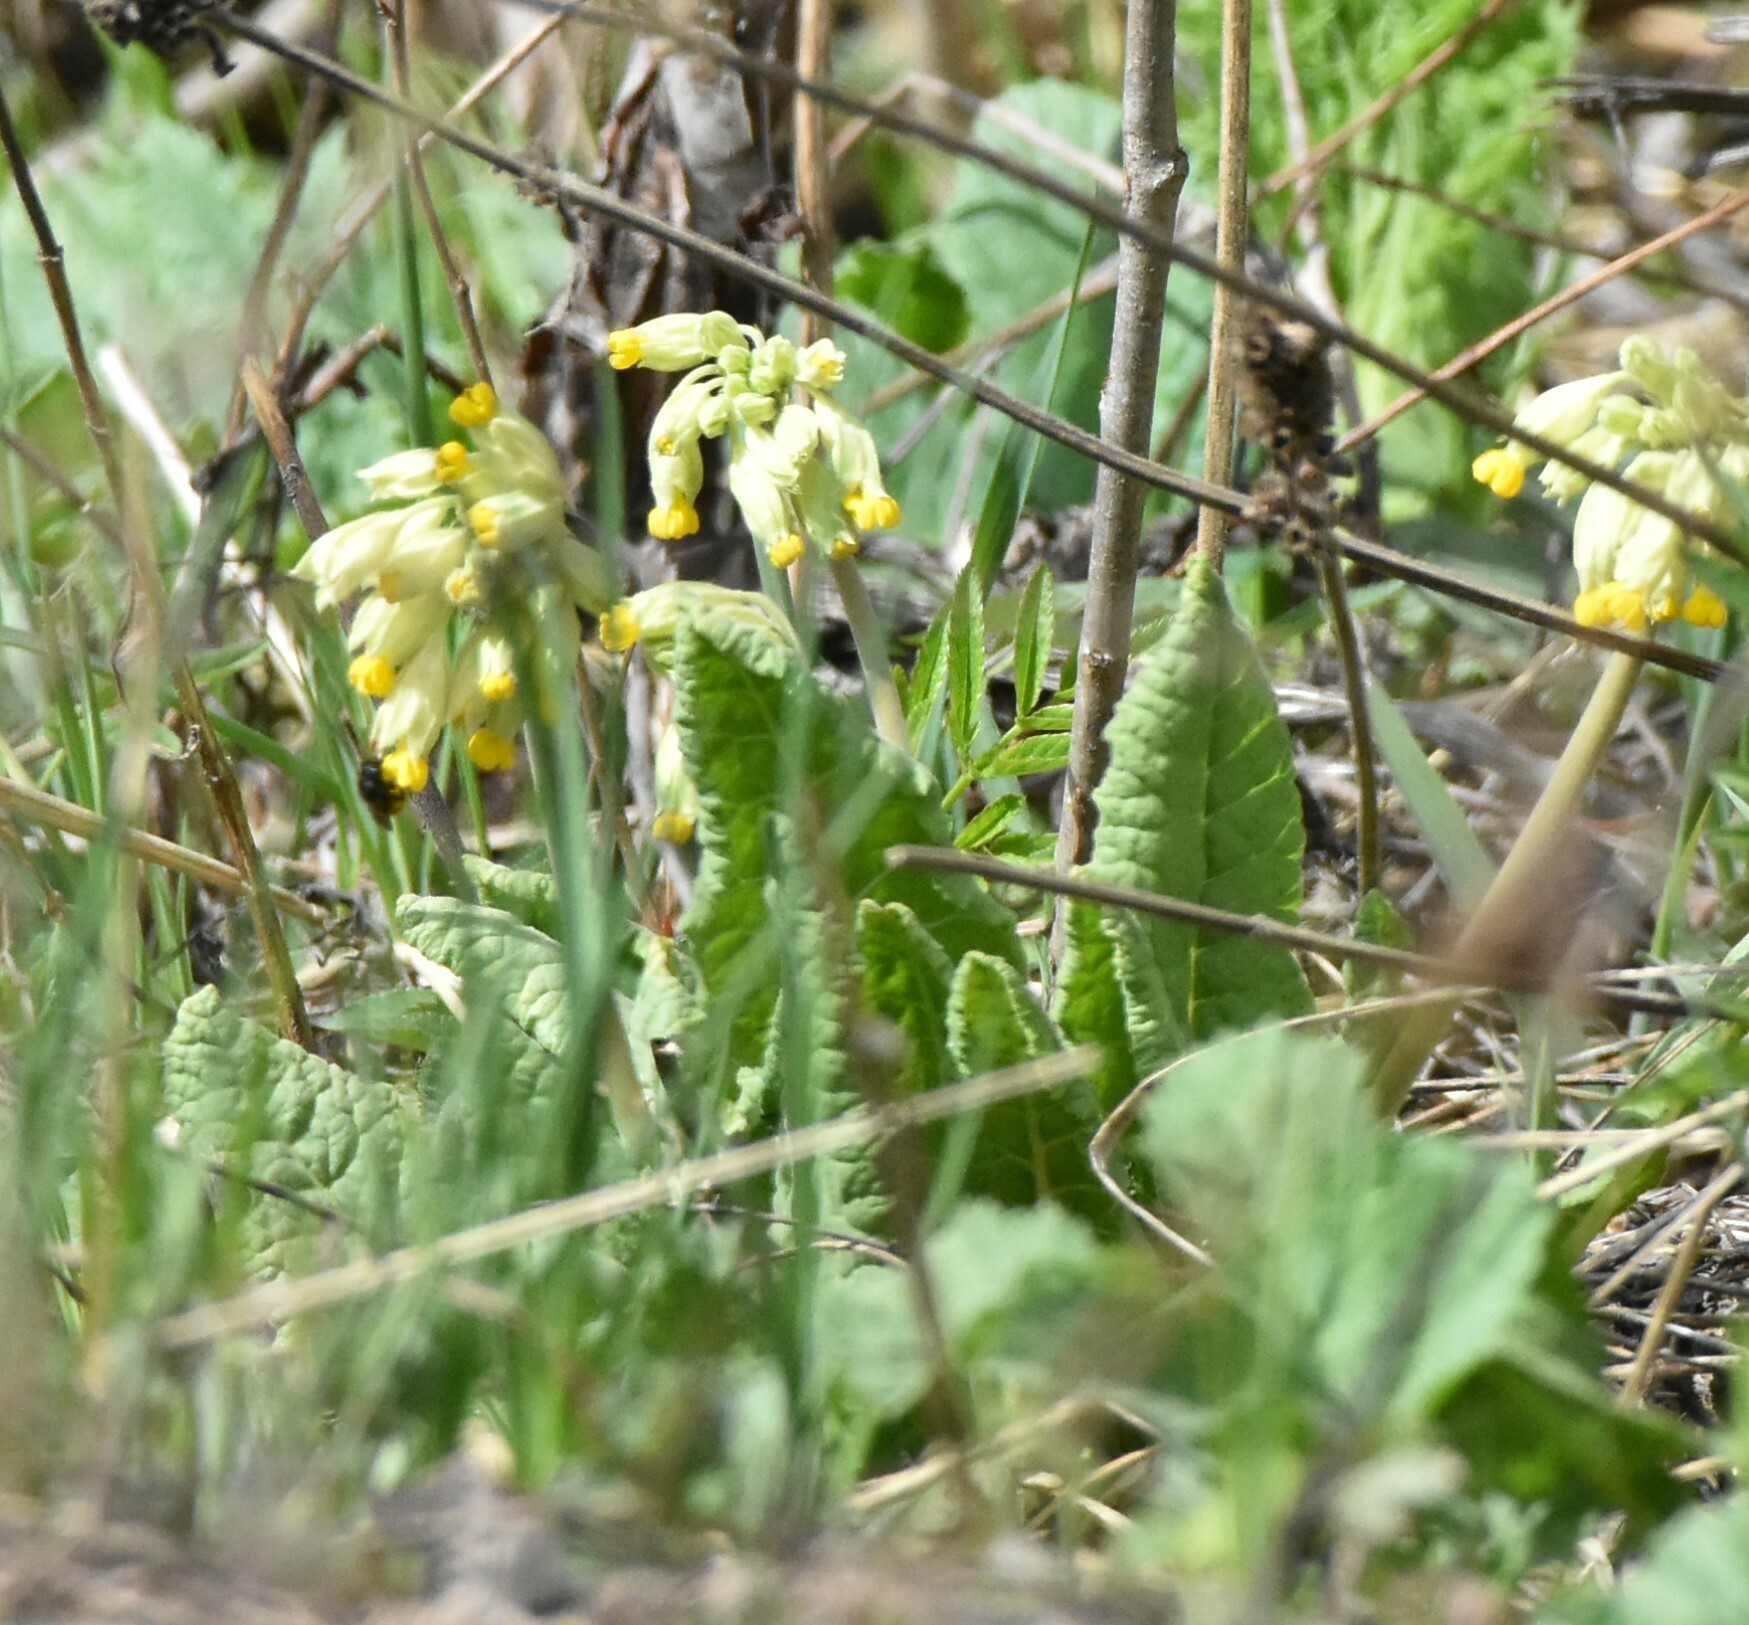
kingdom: Plantae
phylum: Tracheophyta
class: Magnoliopsida
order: Ericales
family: Primulaceae
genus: Primula
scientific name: Primula veris
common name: Cowslip
